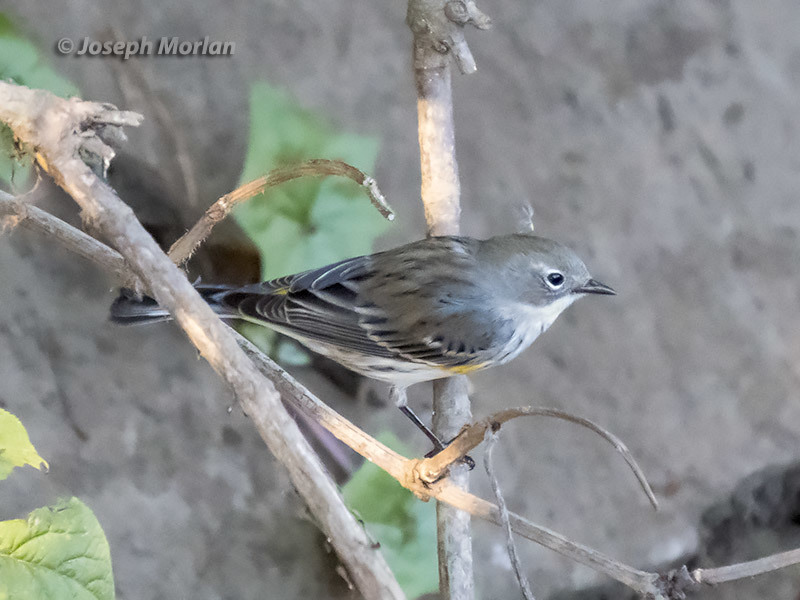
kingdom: Animalia
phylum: Chordata
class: Aves
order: Passeriformes
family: Parulidae
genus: Setophaga
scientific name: Setophaga coronata
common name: Myrtle warbler
